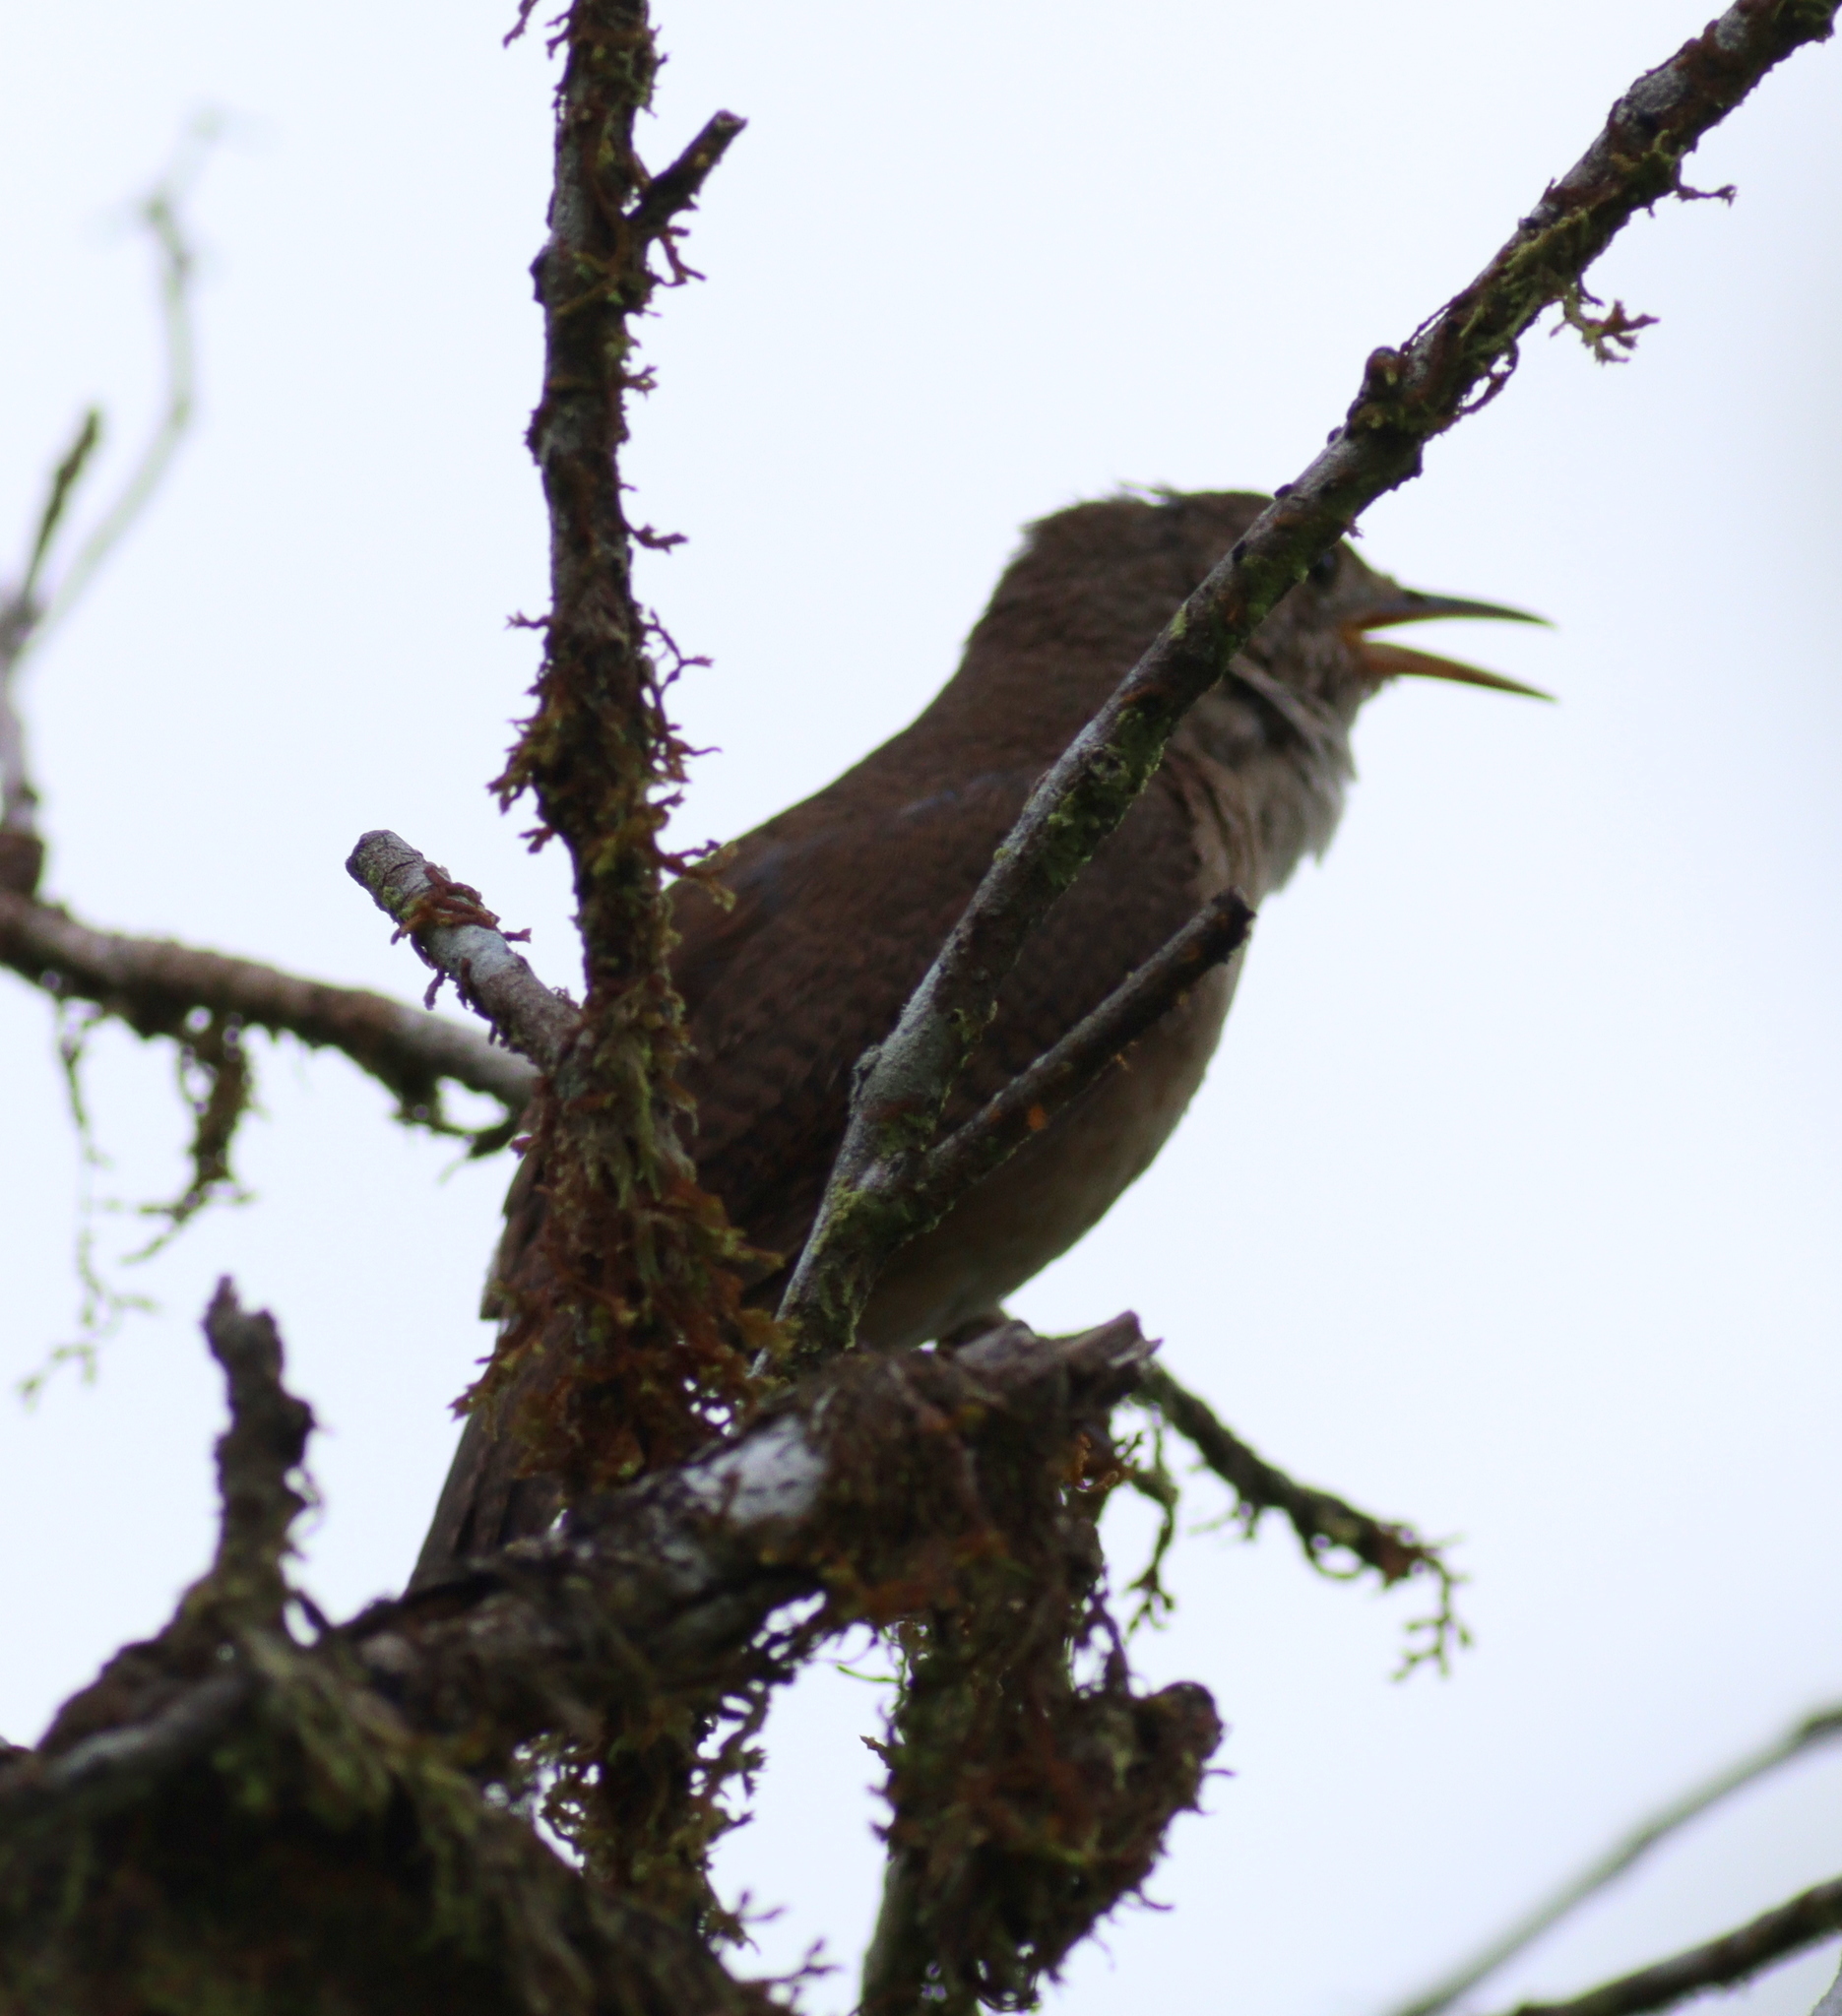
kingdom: Animalia
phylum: Chordata
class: Aves
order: Passeriformes
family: Troglodytidae
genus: Troglodytes
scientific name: Troglodytes aedon
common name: House wren
